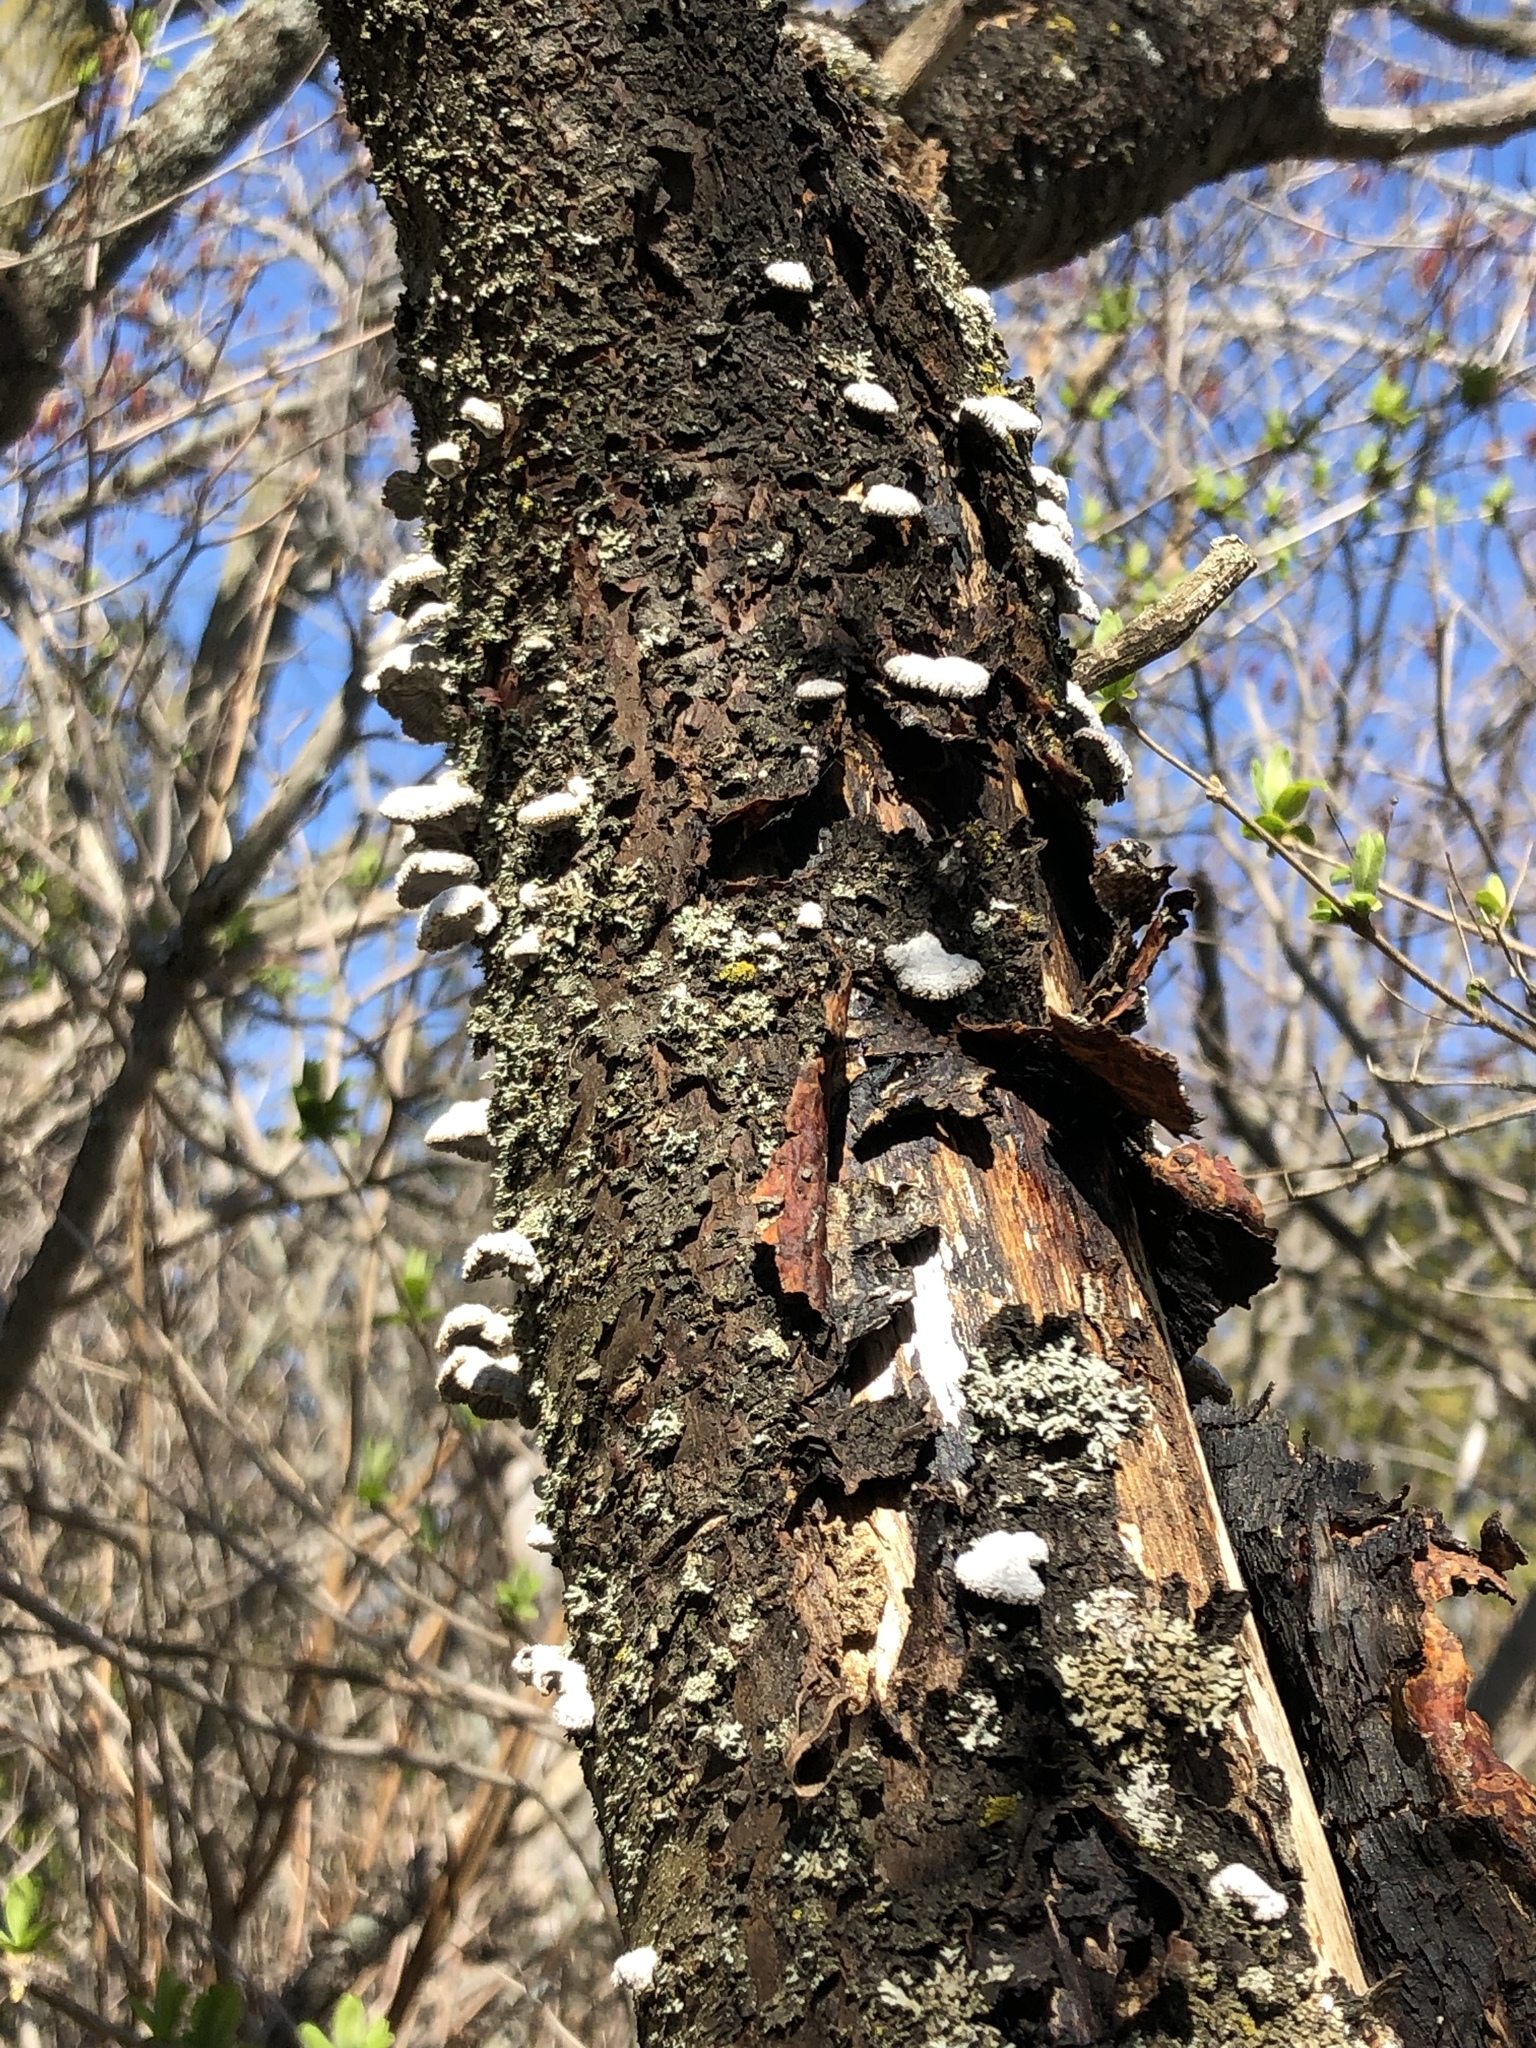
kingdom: Fungi
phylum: Basidiomycota
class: Agaricomycetes
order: Agaricales
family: Schizophyllaceae
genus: Schizophyllum
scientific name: Schizophyllum commune
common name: Common porecrust
